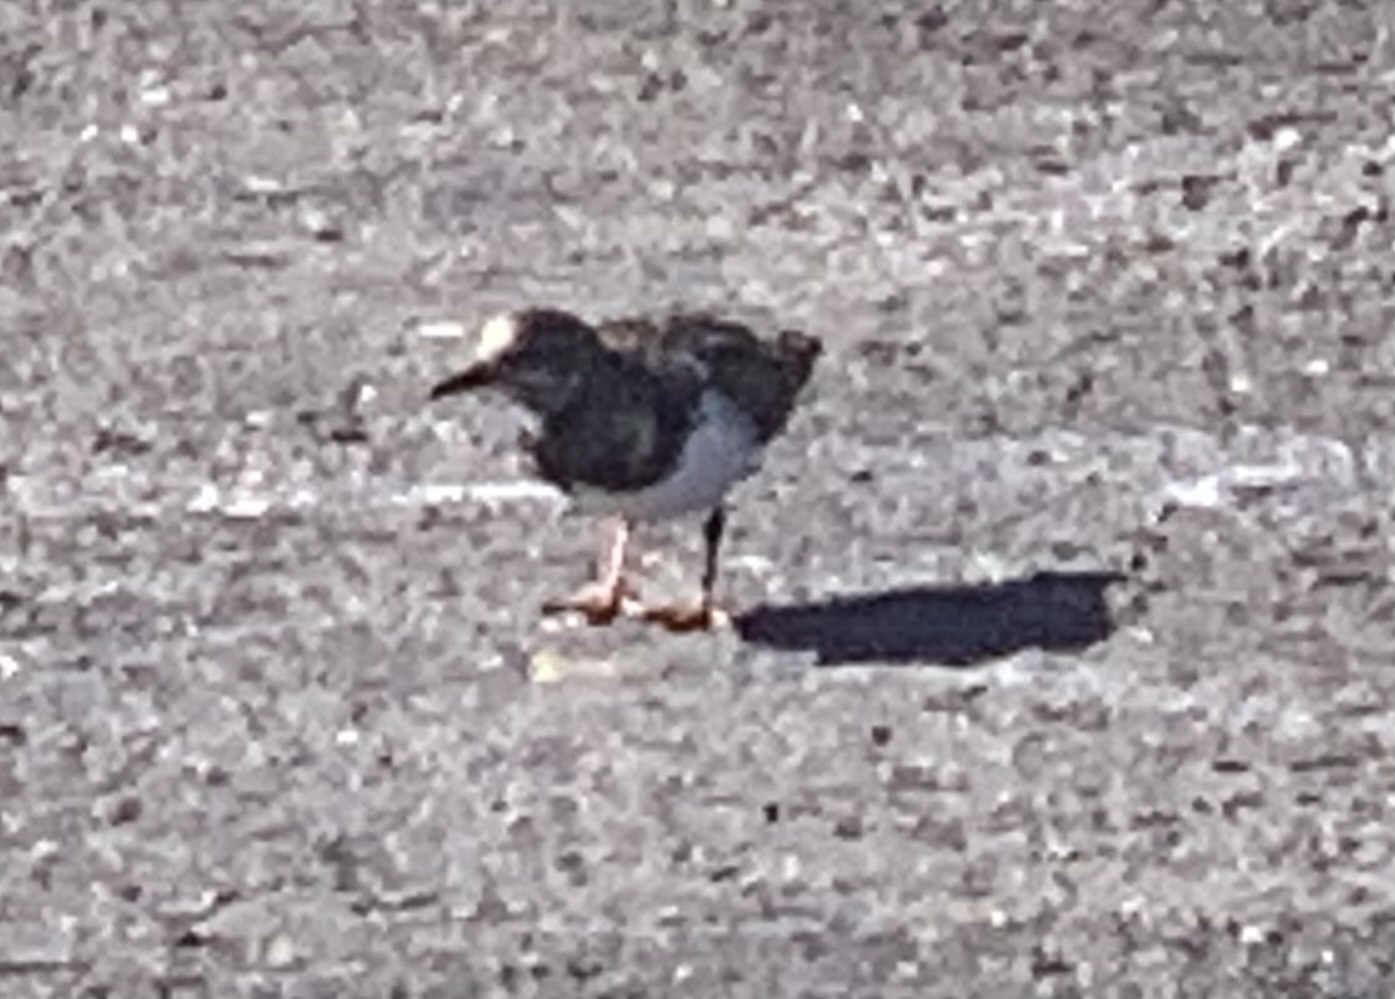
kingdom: Animalia
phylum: Chordata
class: Aves
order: Charadriiformes
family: Scolopacidae
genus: Arenaria
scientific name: Arenaria interpres
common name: Ruddy turnstone
